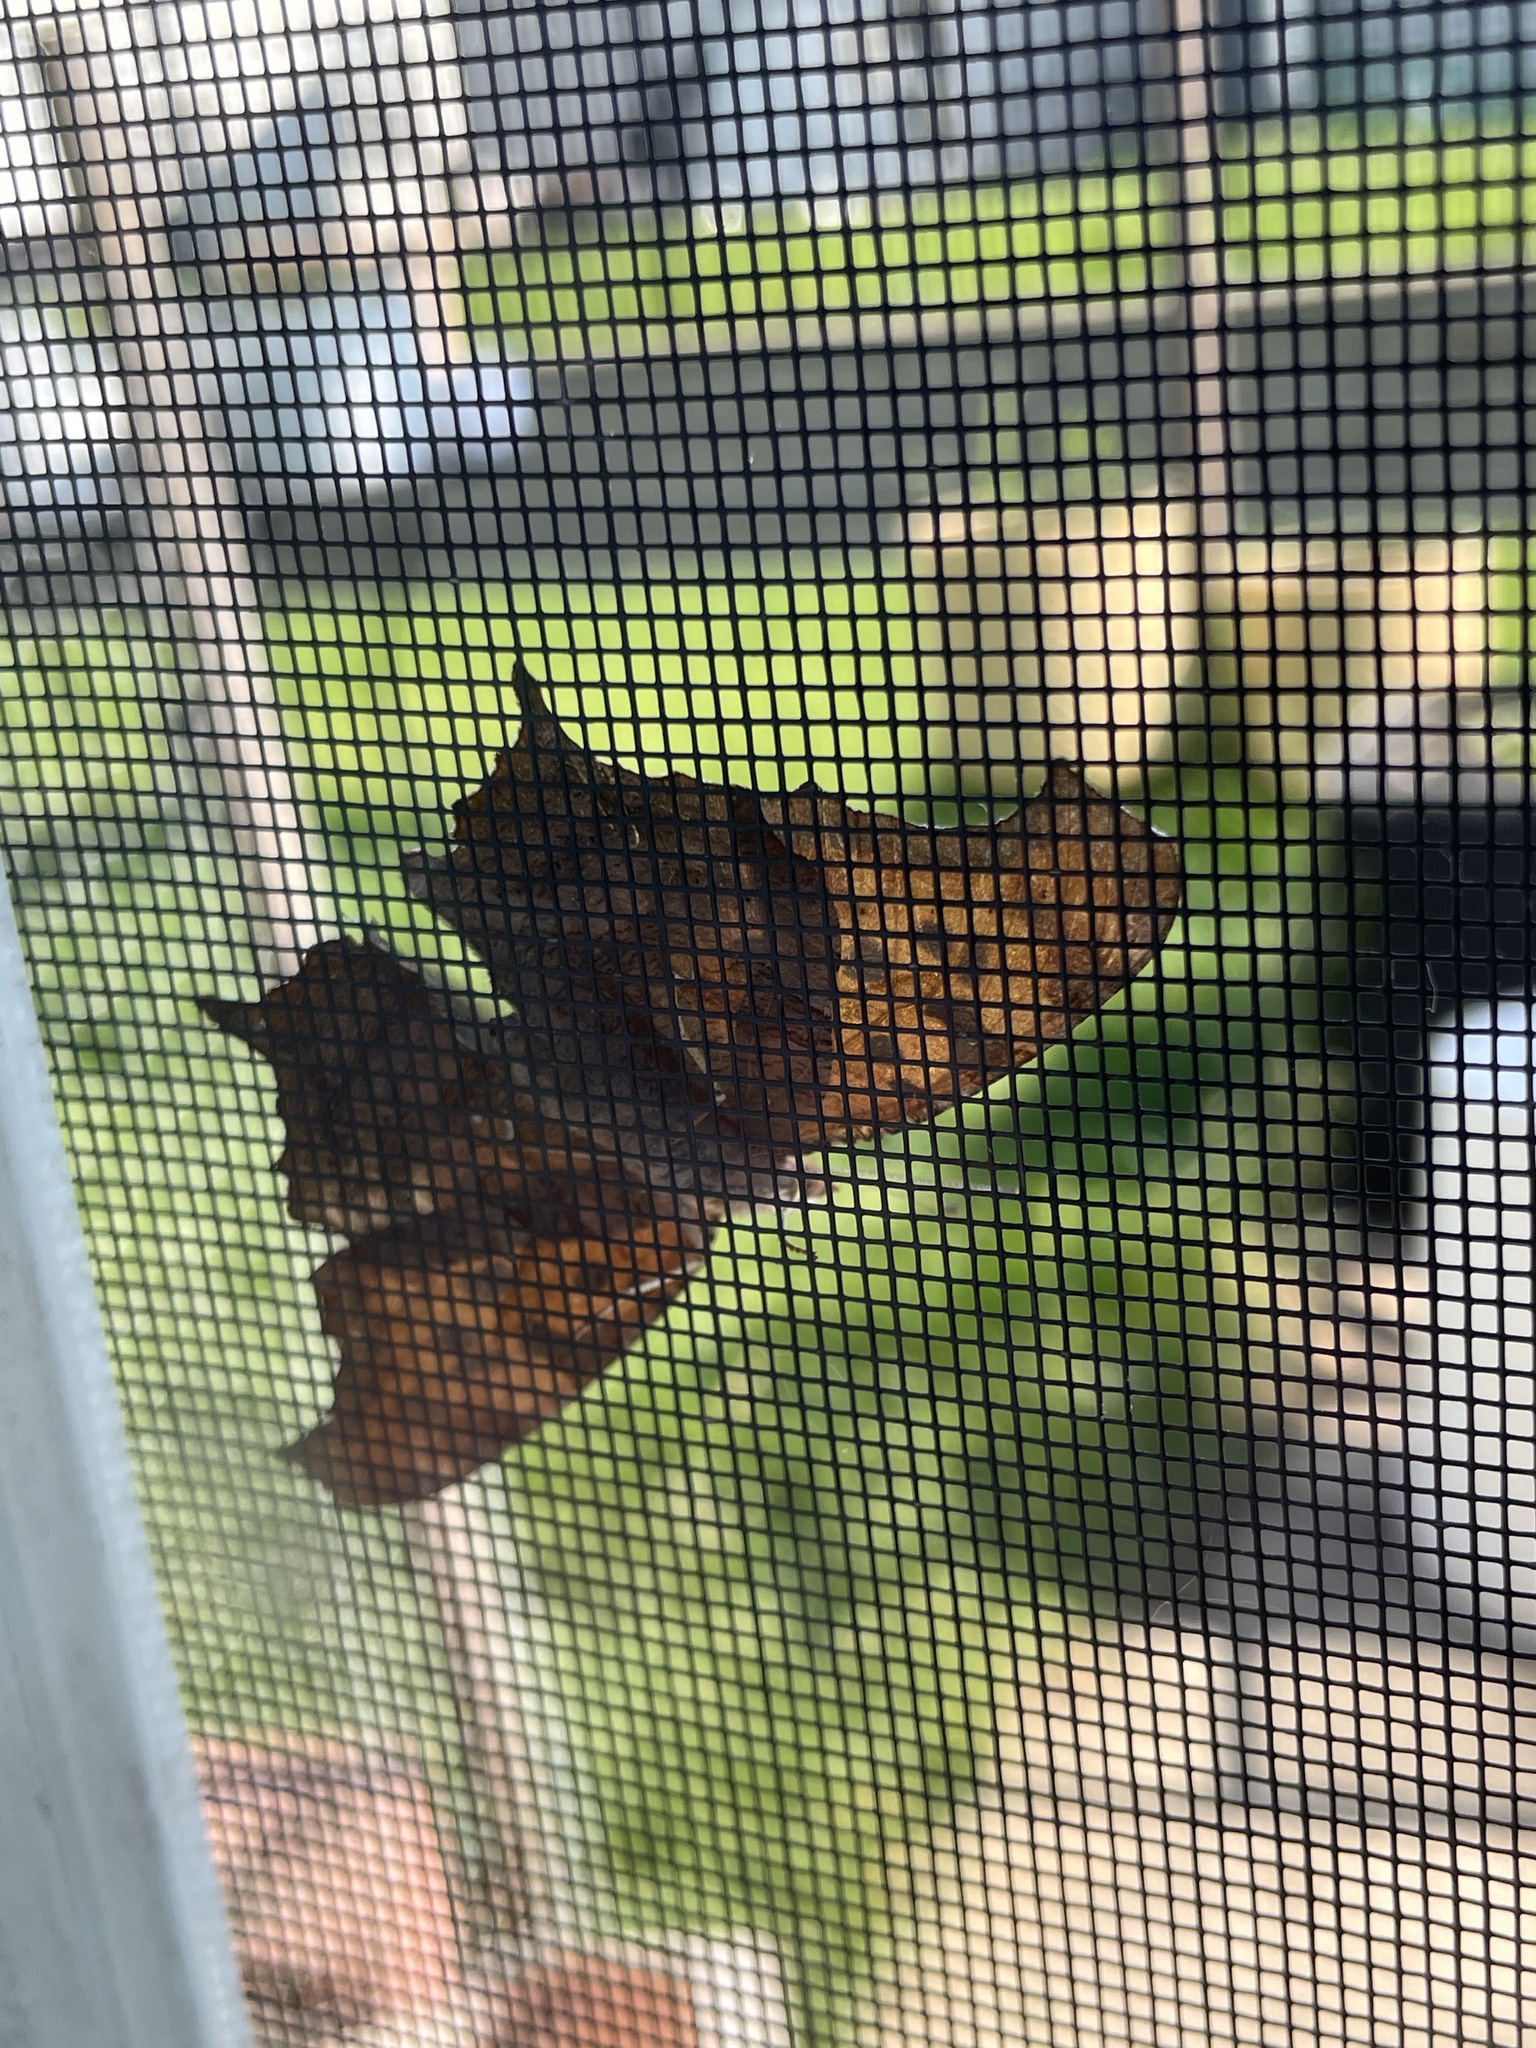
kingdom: Animalia
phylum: Arthropoda
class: Insecta
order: Lepidoptera
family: Nymphalidae
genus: Polygonia
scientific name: Polygonia interrogationis
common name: Question mark
